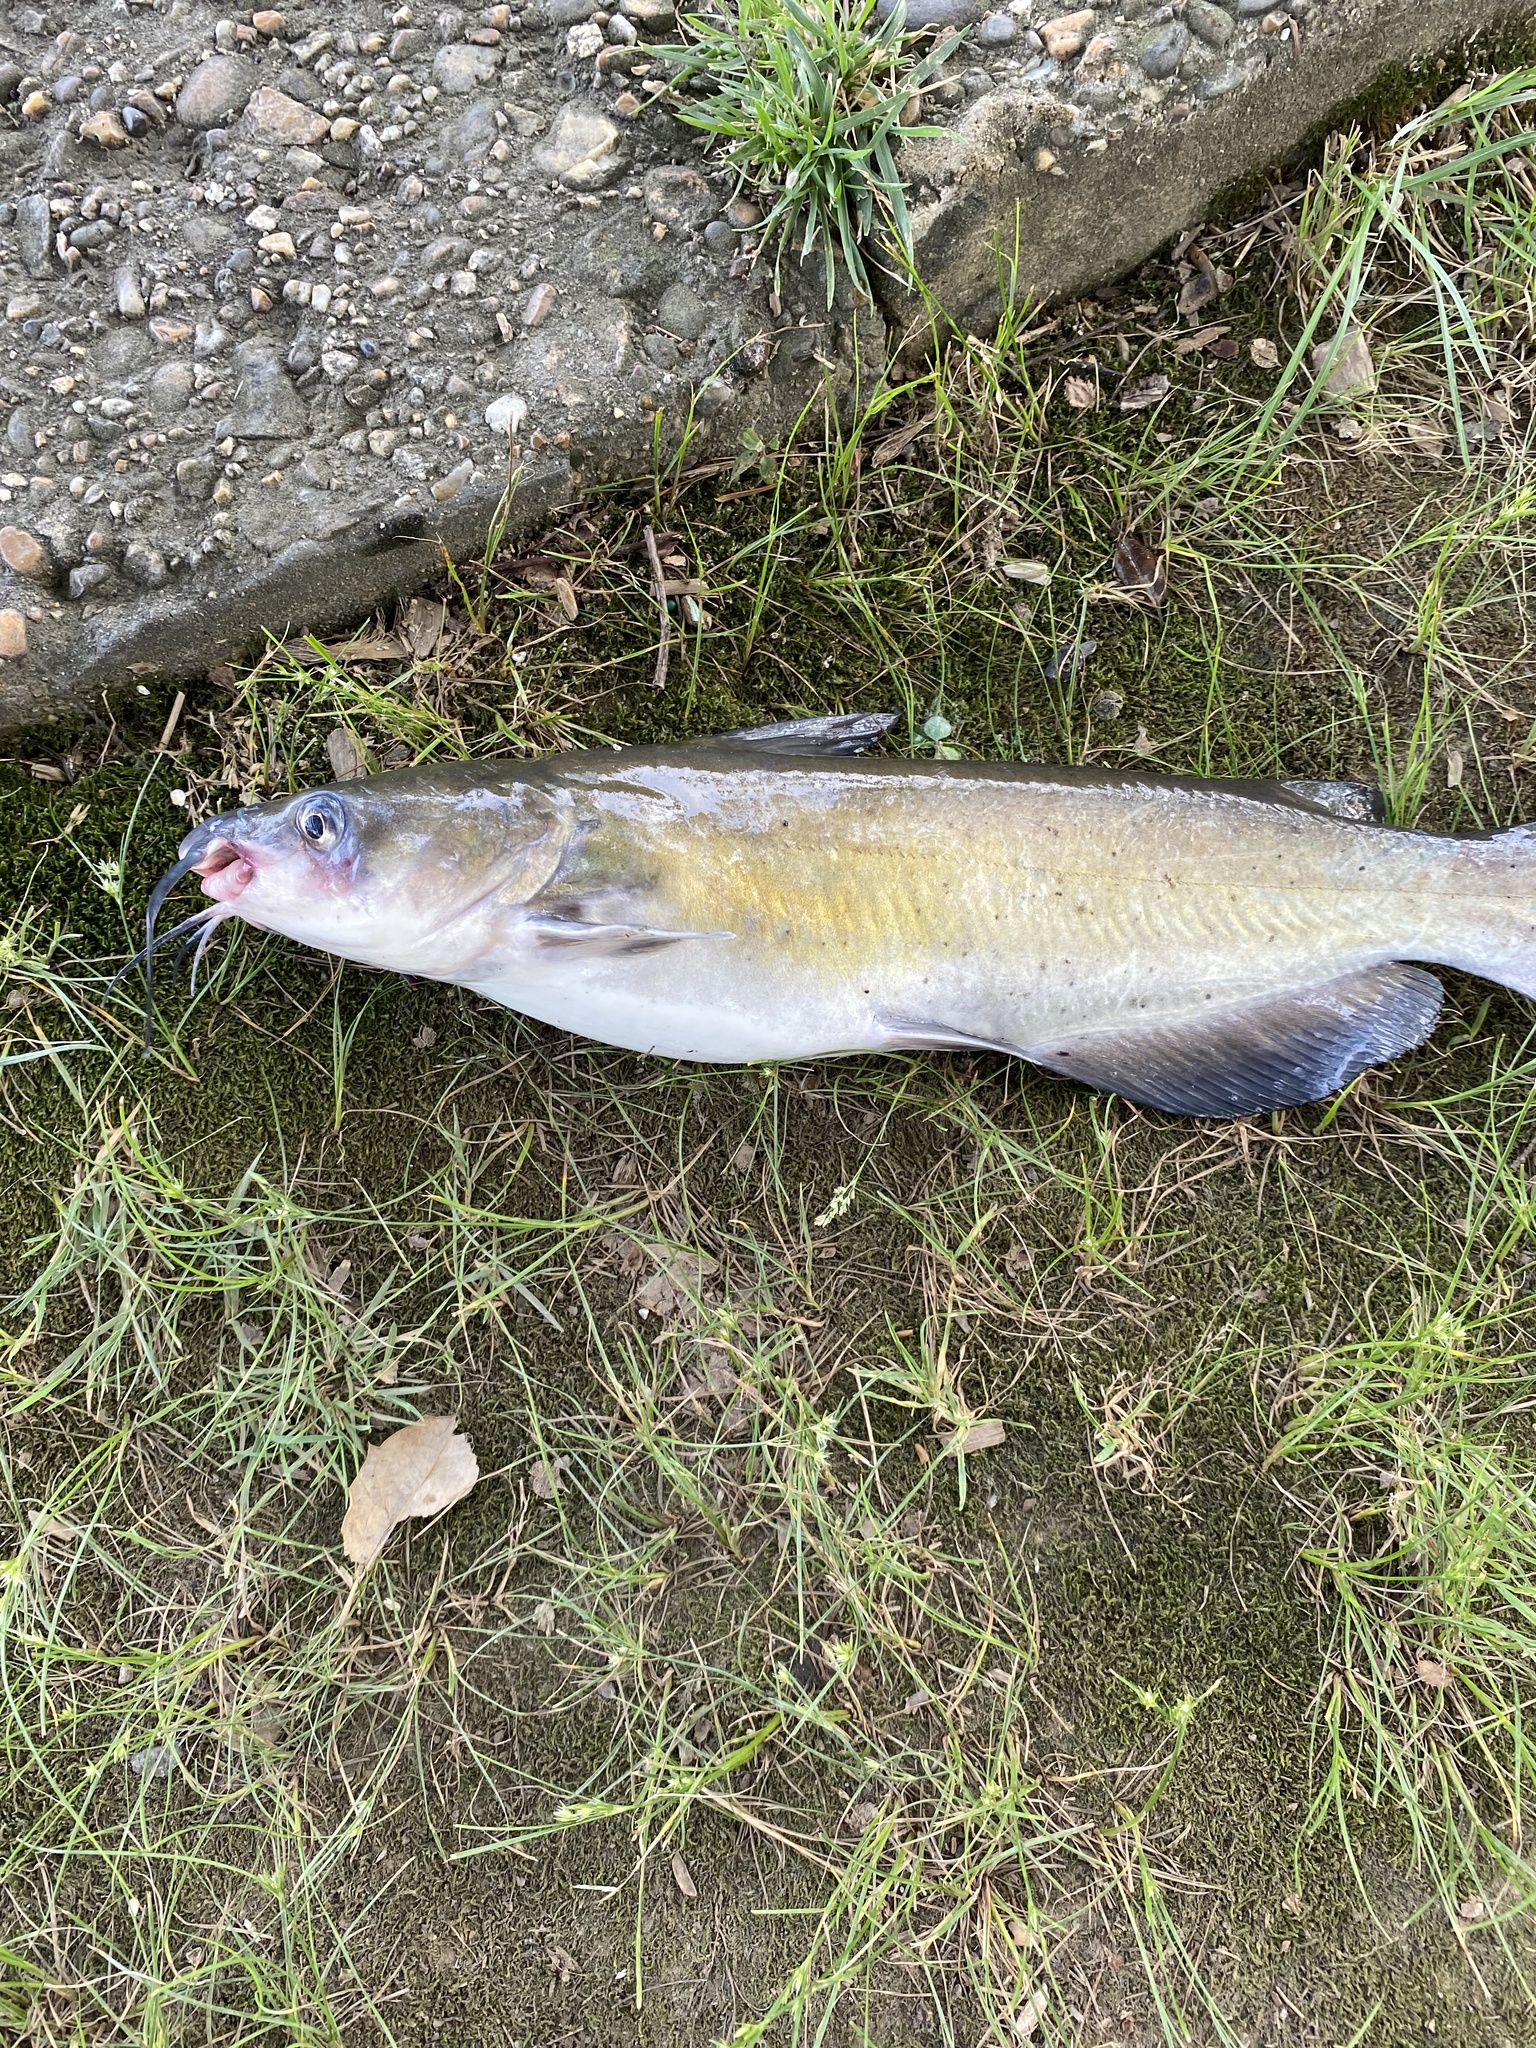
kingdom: Animalia
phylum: Chordata
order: Siluriformes
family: Ictaluridae
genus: Ictalurus
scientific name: Ictalurus punctatus
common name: Channel catfish
